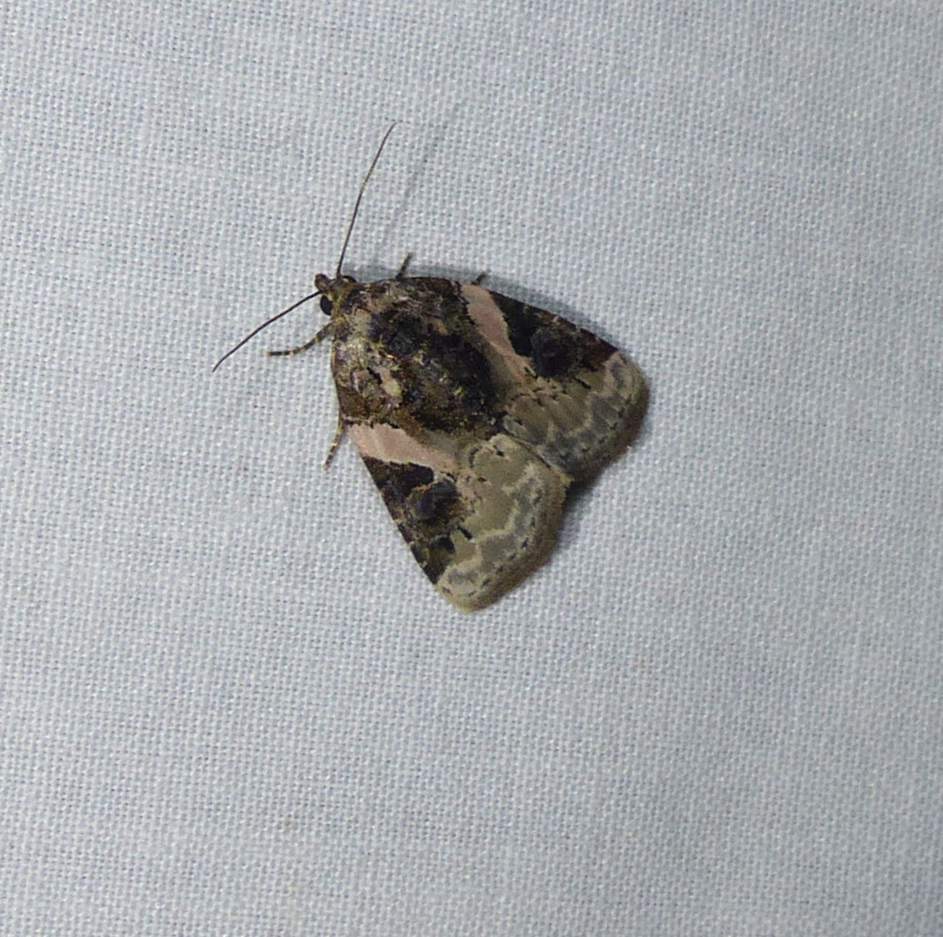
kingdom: Animalia
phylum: Arthropoda
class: Insecta
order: Lepidoptera
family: Noctuidae
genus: Pseudeustrotia
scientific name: Pseudeustrotia carneola
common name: Pink-barred lithacodia moth
